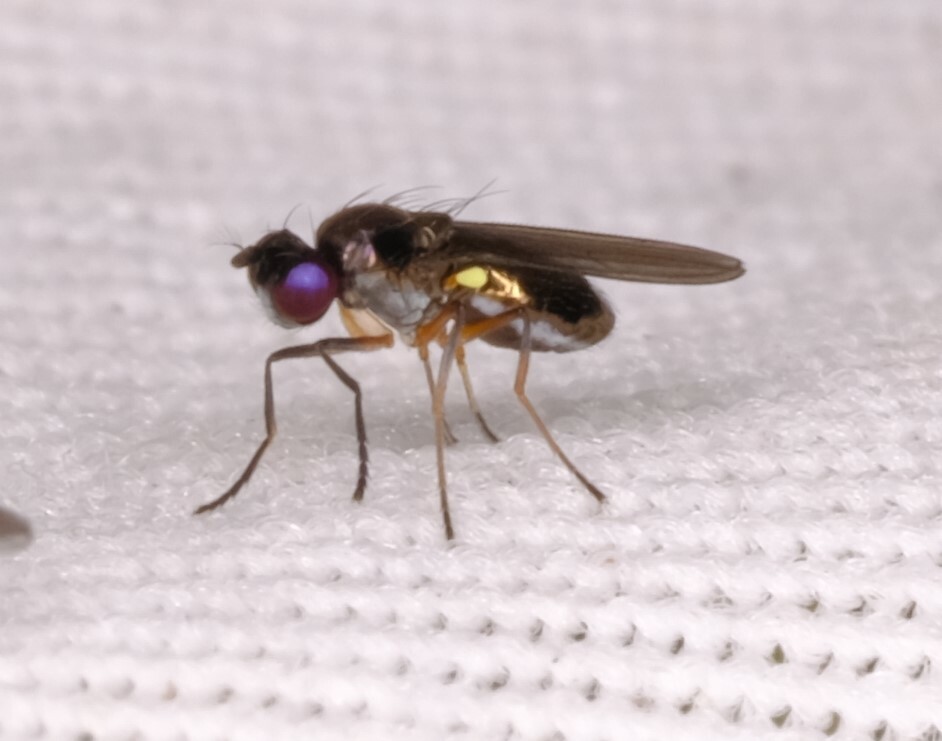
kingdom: Animalia
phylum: Arthropoda
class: Insecta
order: Diptera
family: Ephydridae
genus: Hydrellia
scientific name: Hydrellia tritici
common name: Shore fly
